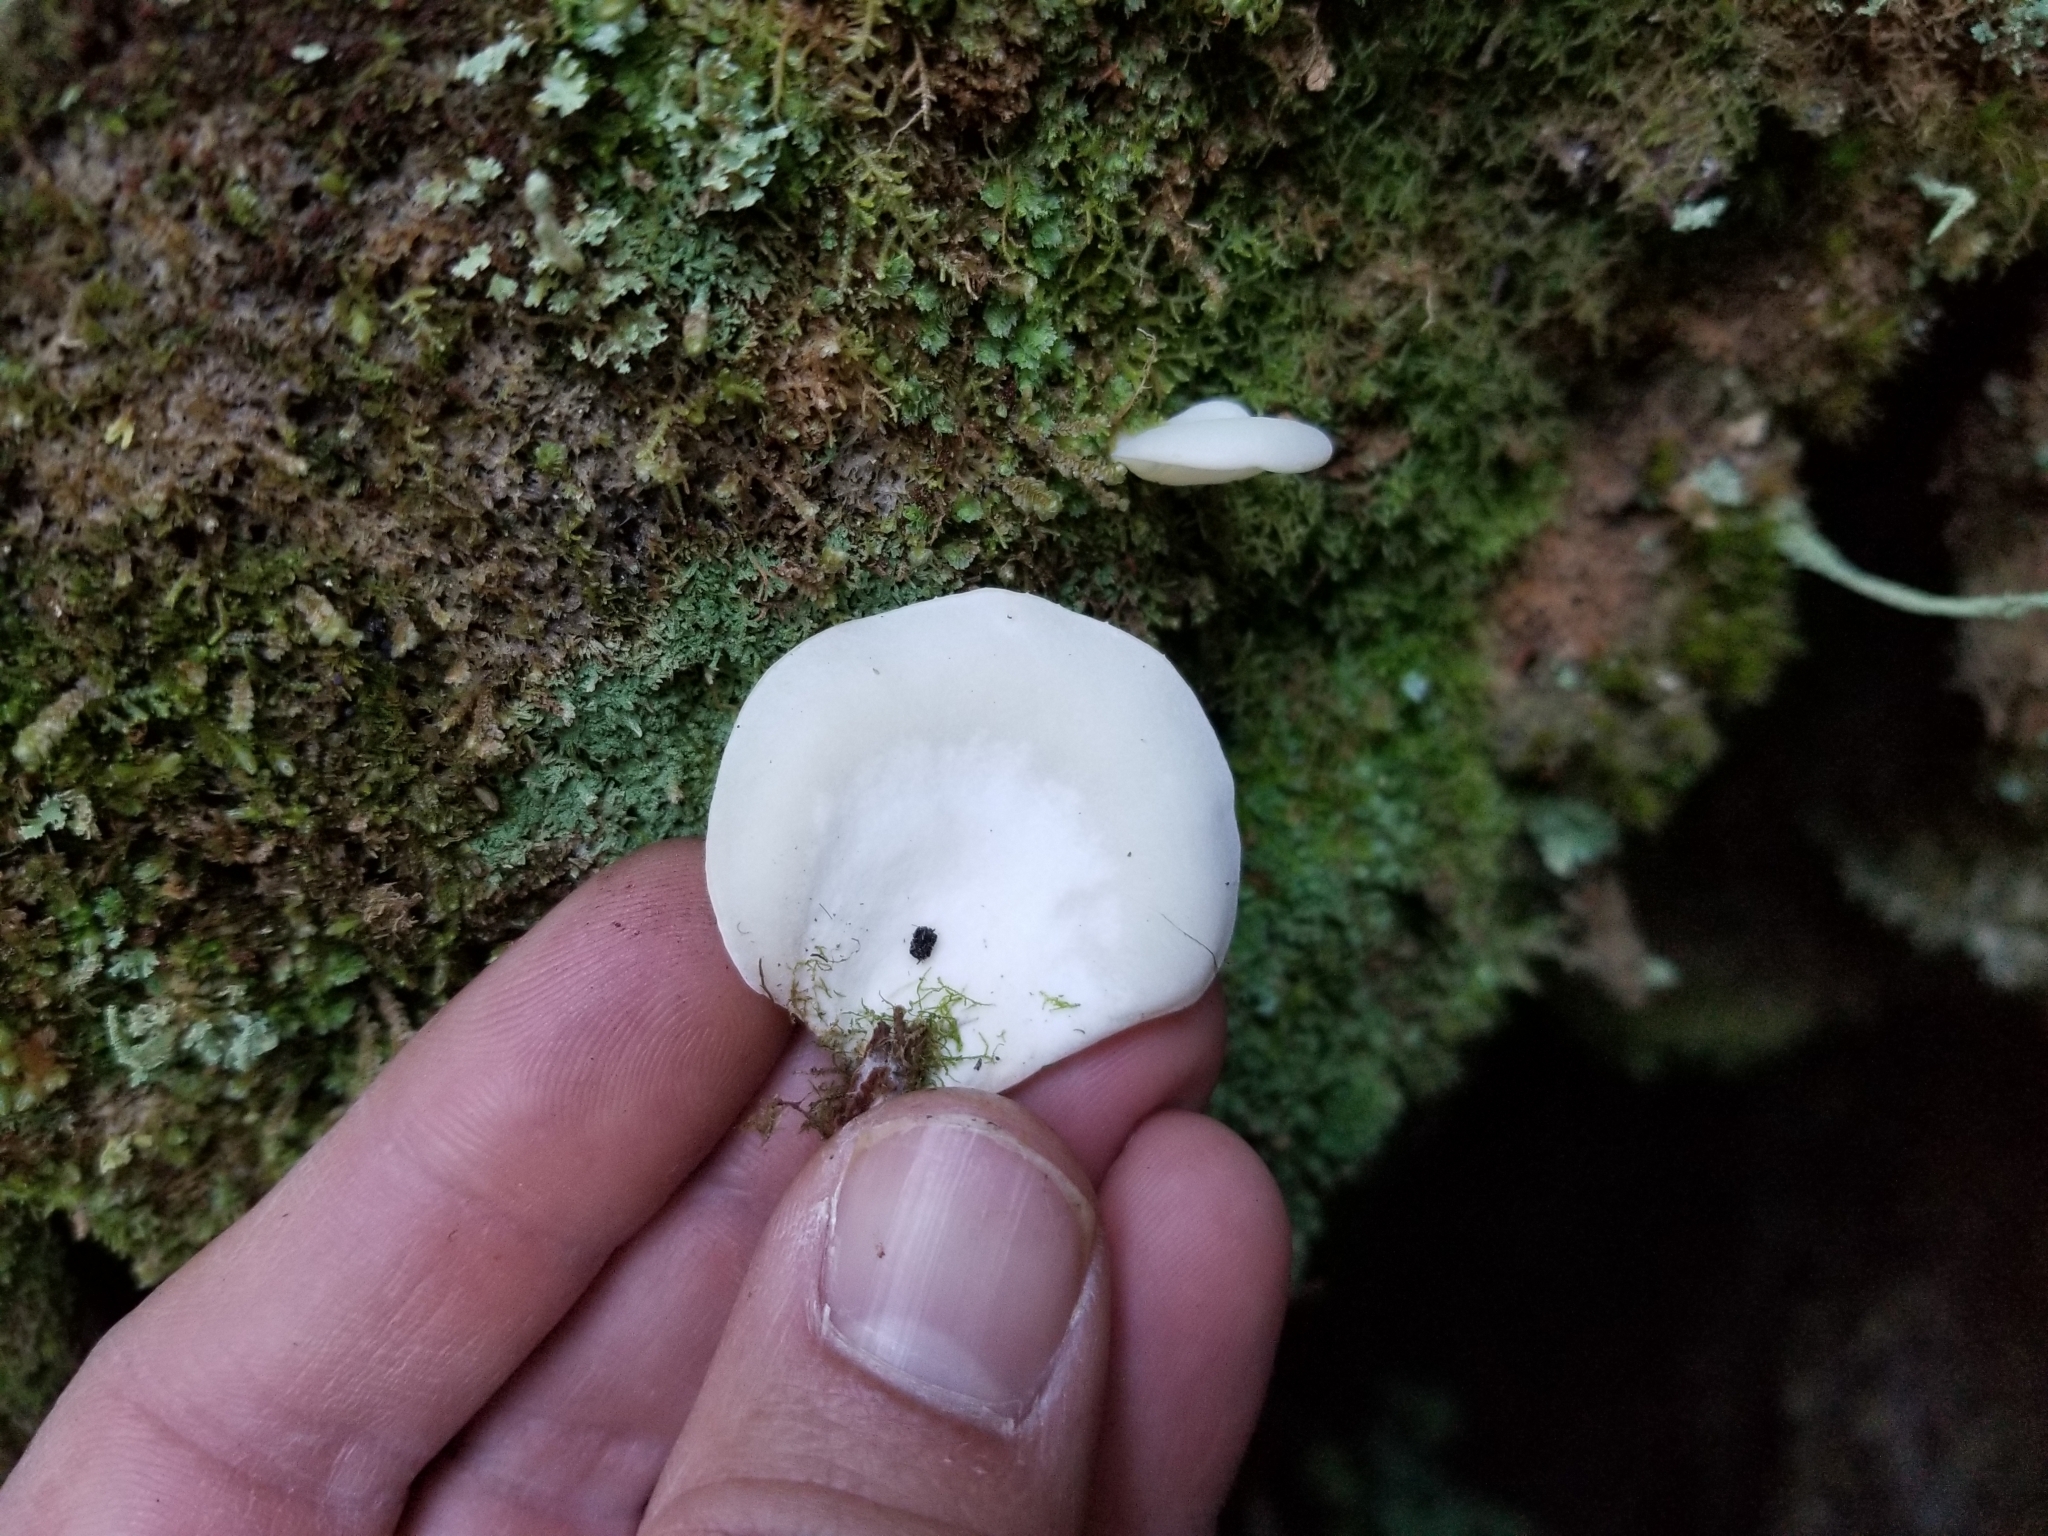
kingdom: Fungi
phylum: Basidiomycota
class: Agaricomycetes
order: Agaricales
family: Marasmiaceae
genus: Pleurocybella
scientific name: Pleurocybella porrigens
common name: Angel's wings
